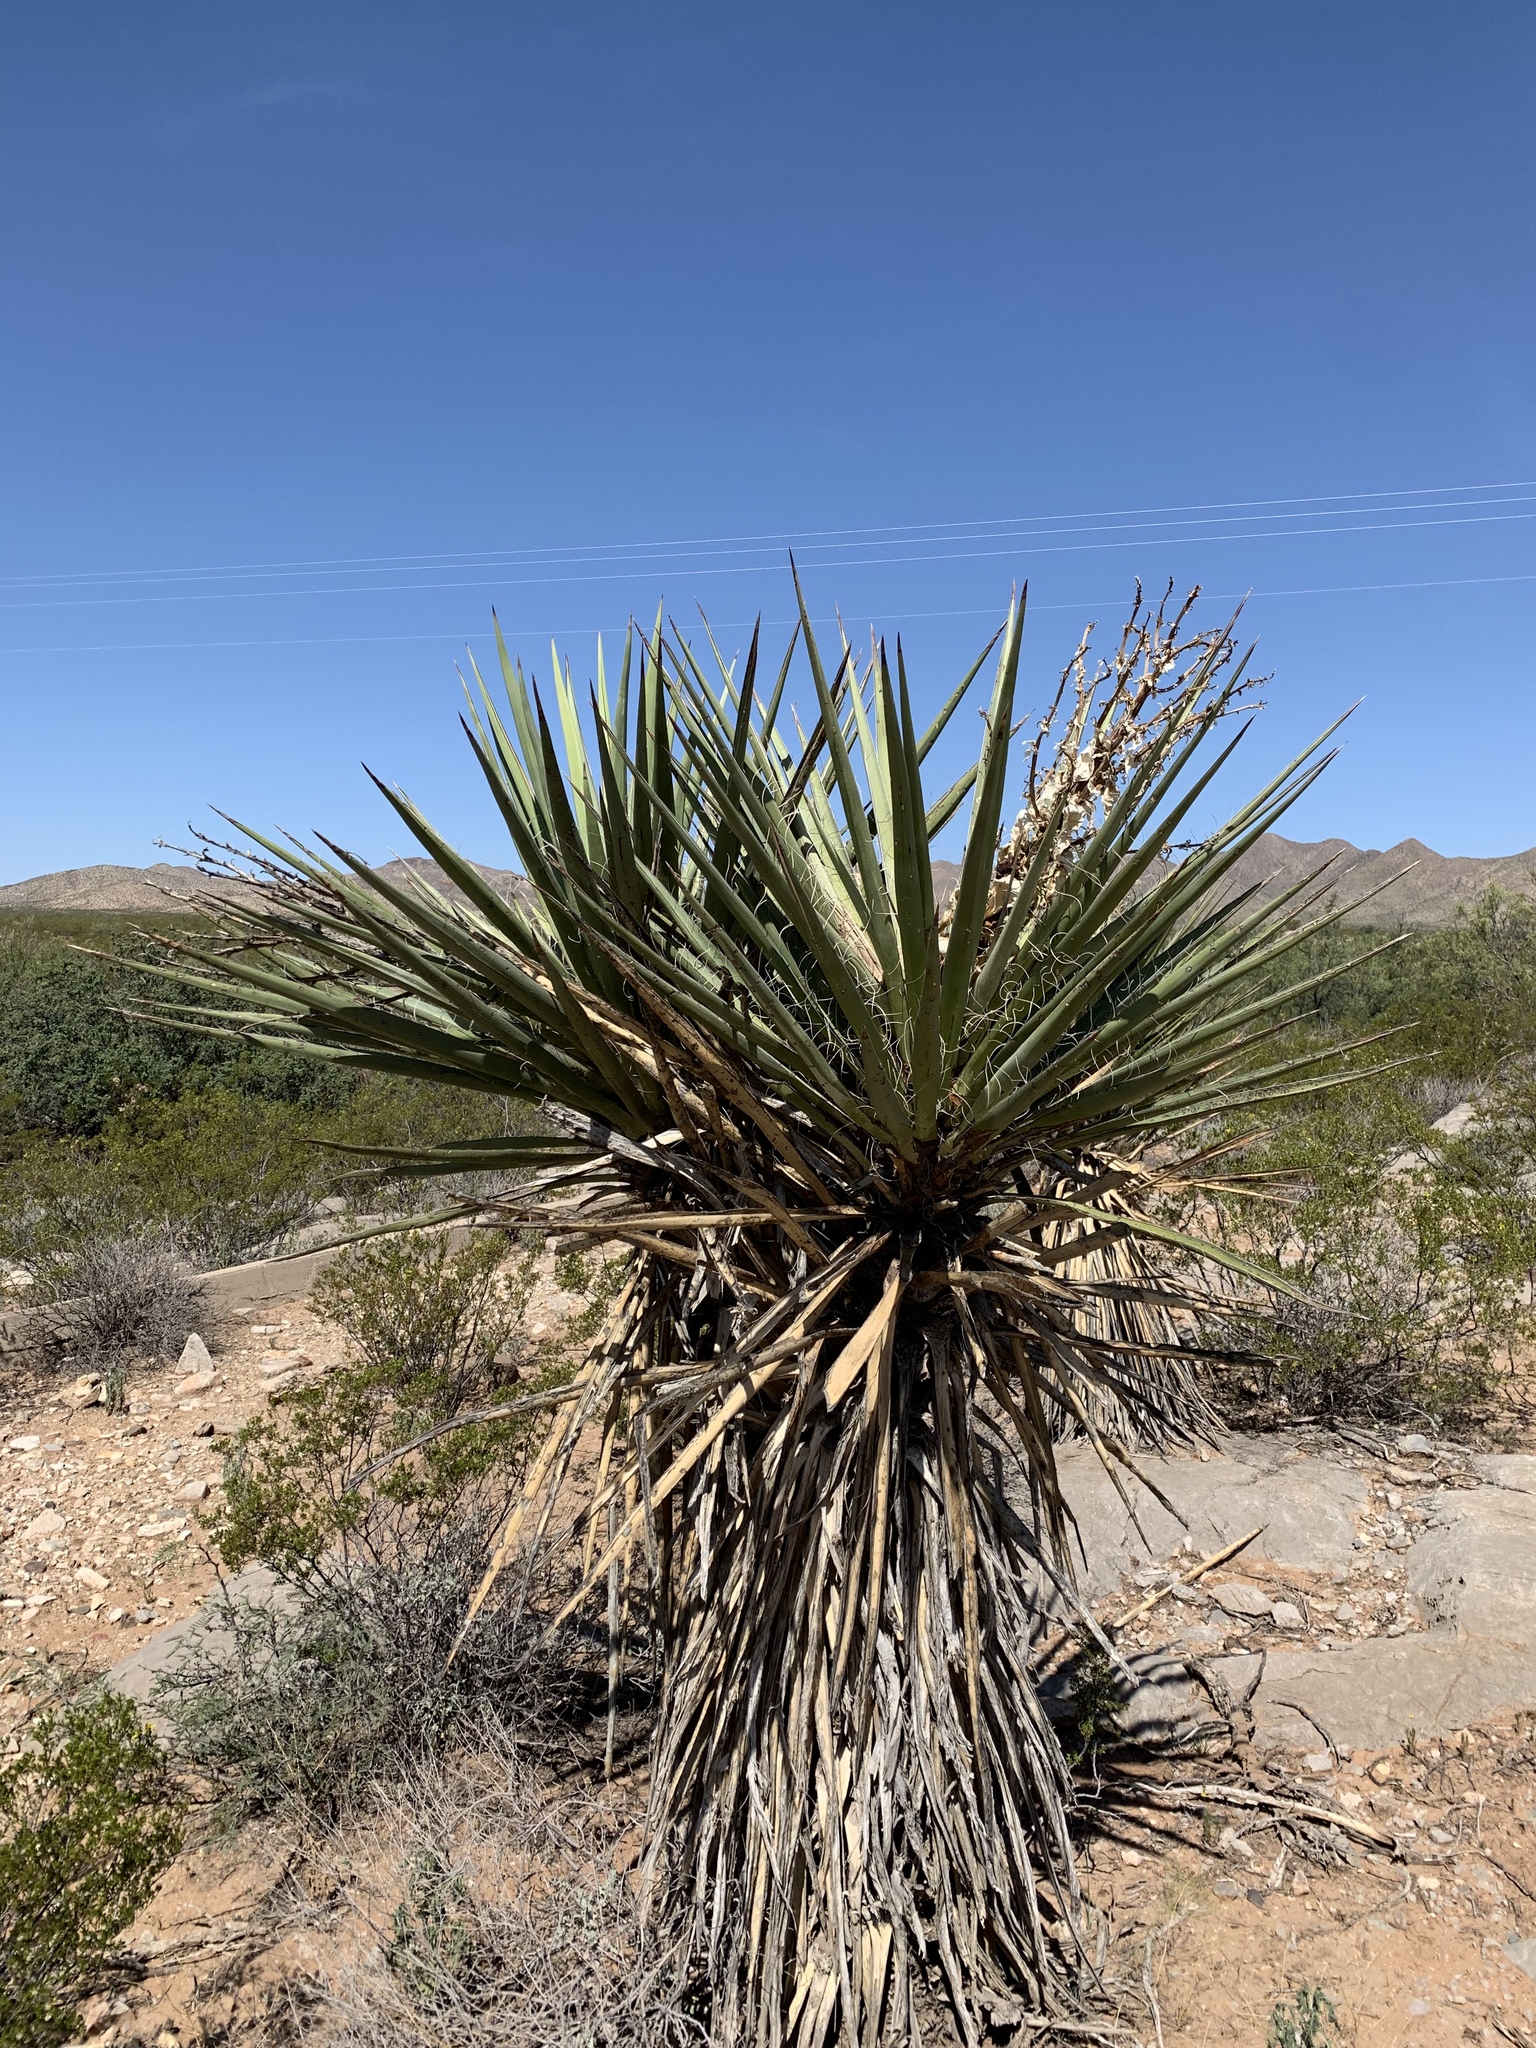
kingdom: Plantae
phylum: Tracheophyta
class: Liliopsida
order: Asparagales
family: Asparagaceae
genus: Yucca
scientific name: Yucca treculiana
